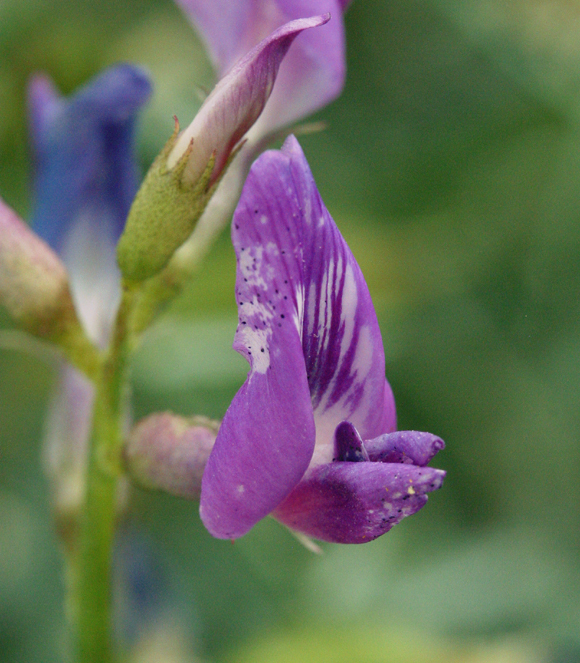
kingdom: Plantae
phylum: Tracheophyta
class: Magnoliopsida
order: Fabales
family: Fabaceae
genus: Astragalus
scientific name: Astragalus serenoi
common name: Naked milk-vetch
